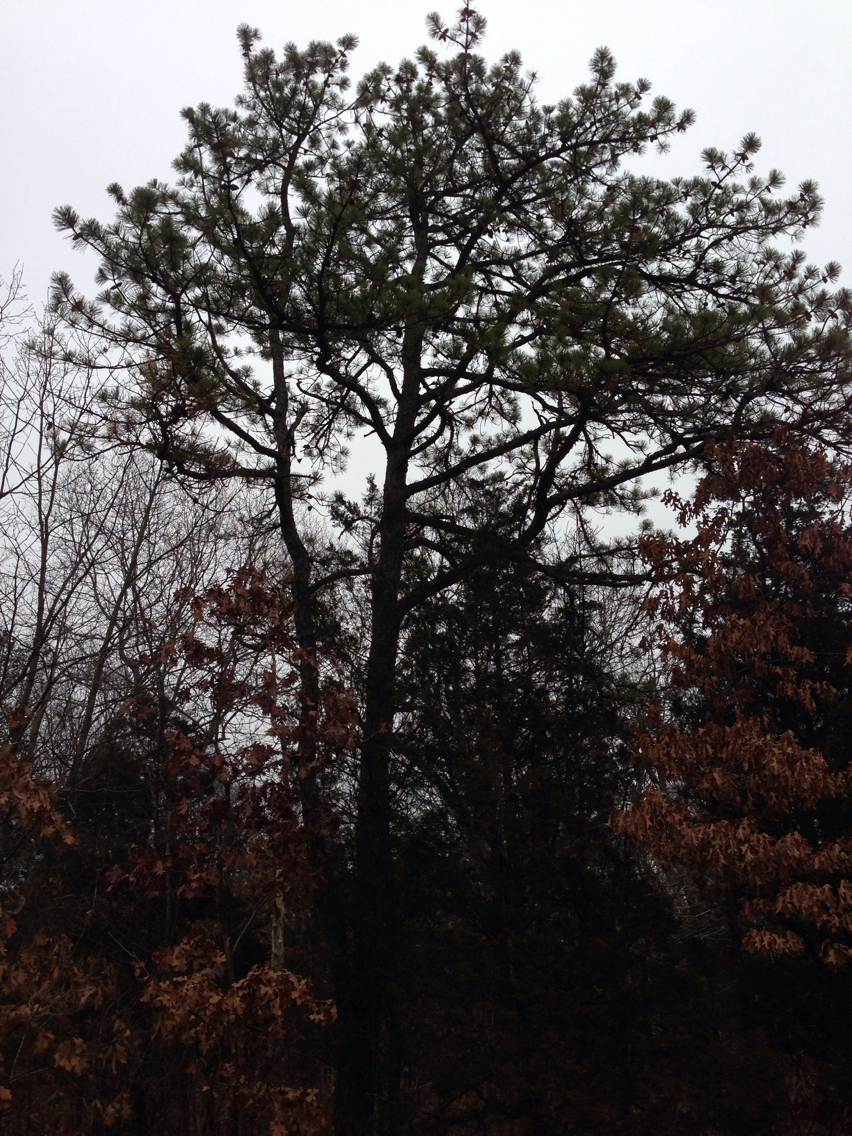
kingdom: Plantae
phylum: Tracheophyta
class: Pinopsida
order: Pinales
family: Pinaceae
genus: Pinus
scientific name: Pinus rigida
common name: Pitch pine
